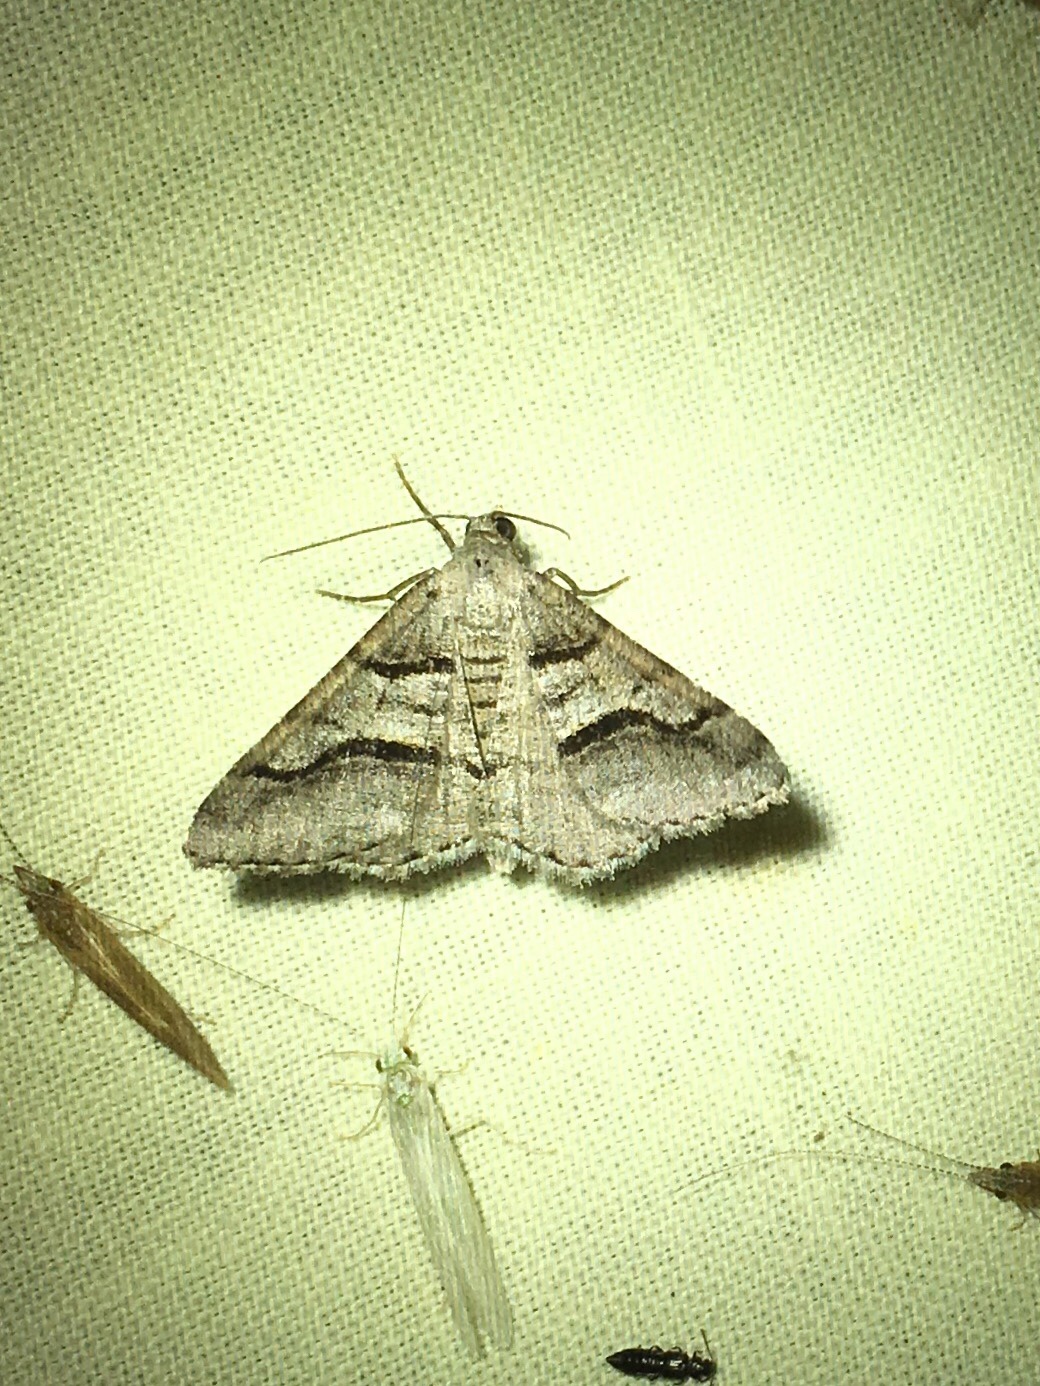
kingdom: Animalia
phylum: Arthropoda
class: Insecta
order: Lepidoptera
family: Geometridae
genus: Digrammia
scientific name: Digrammia continuata
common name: Curve-lined angle
